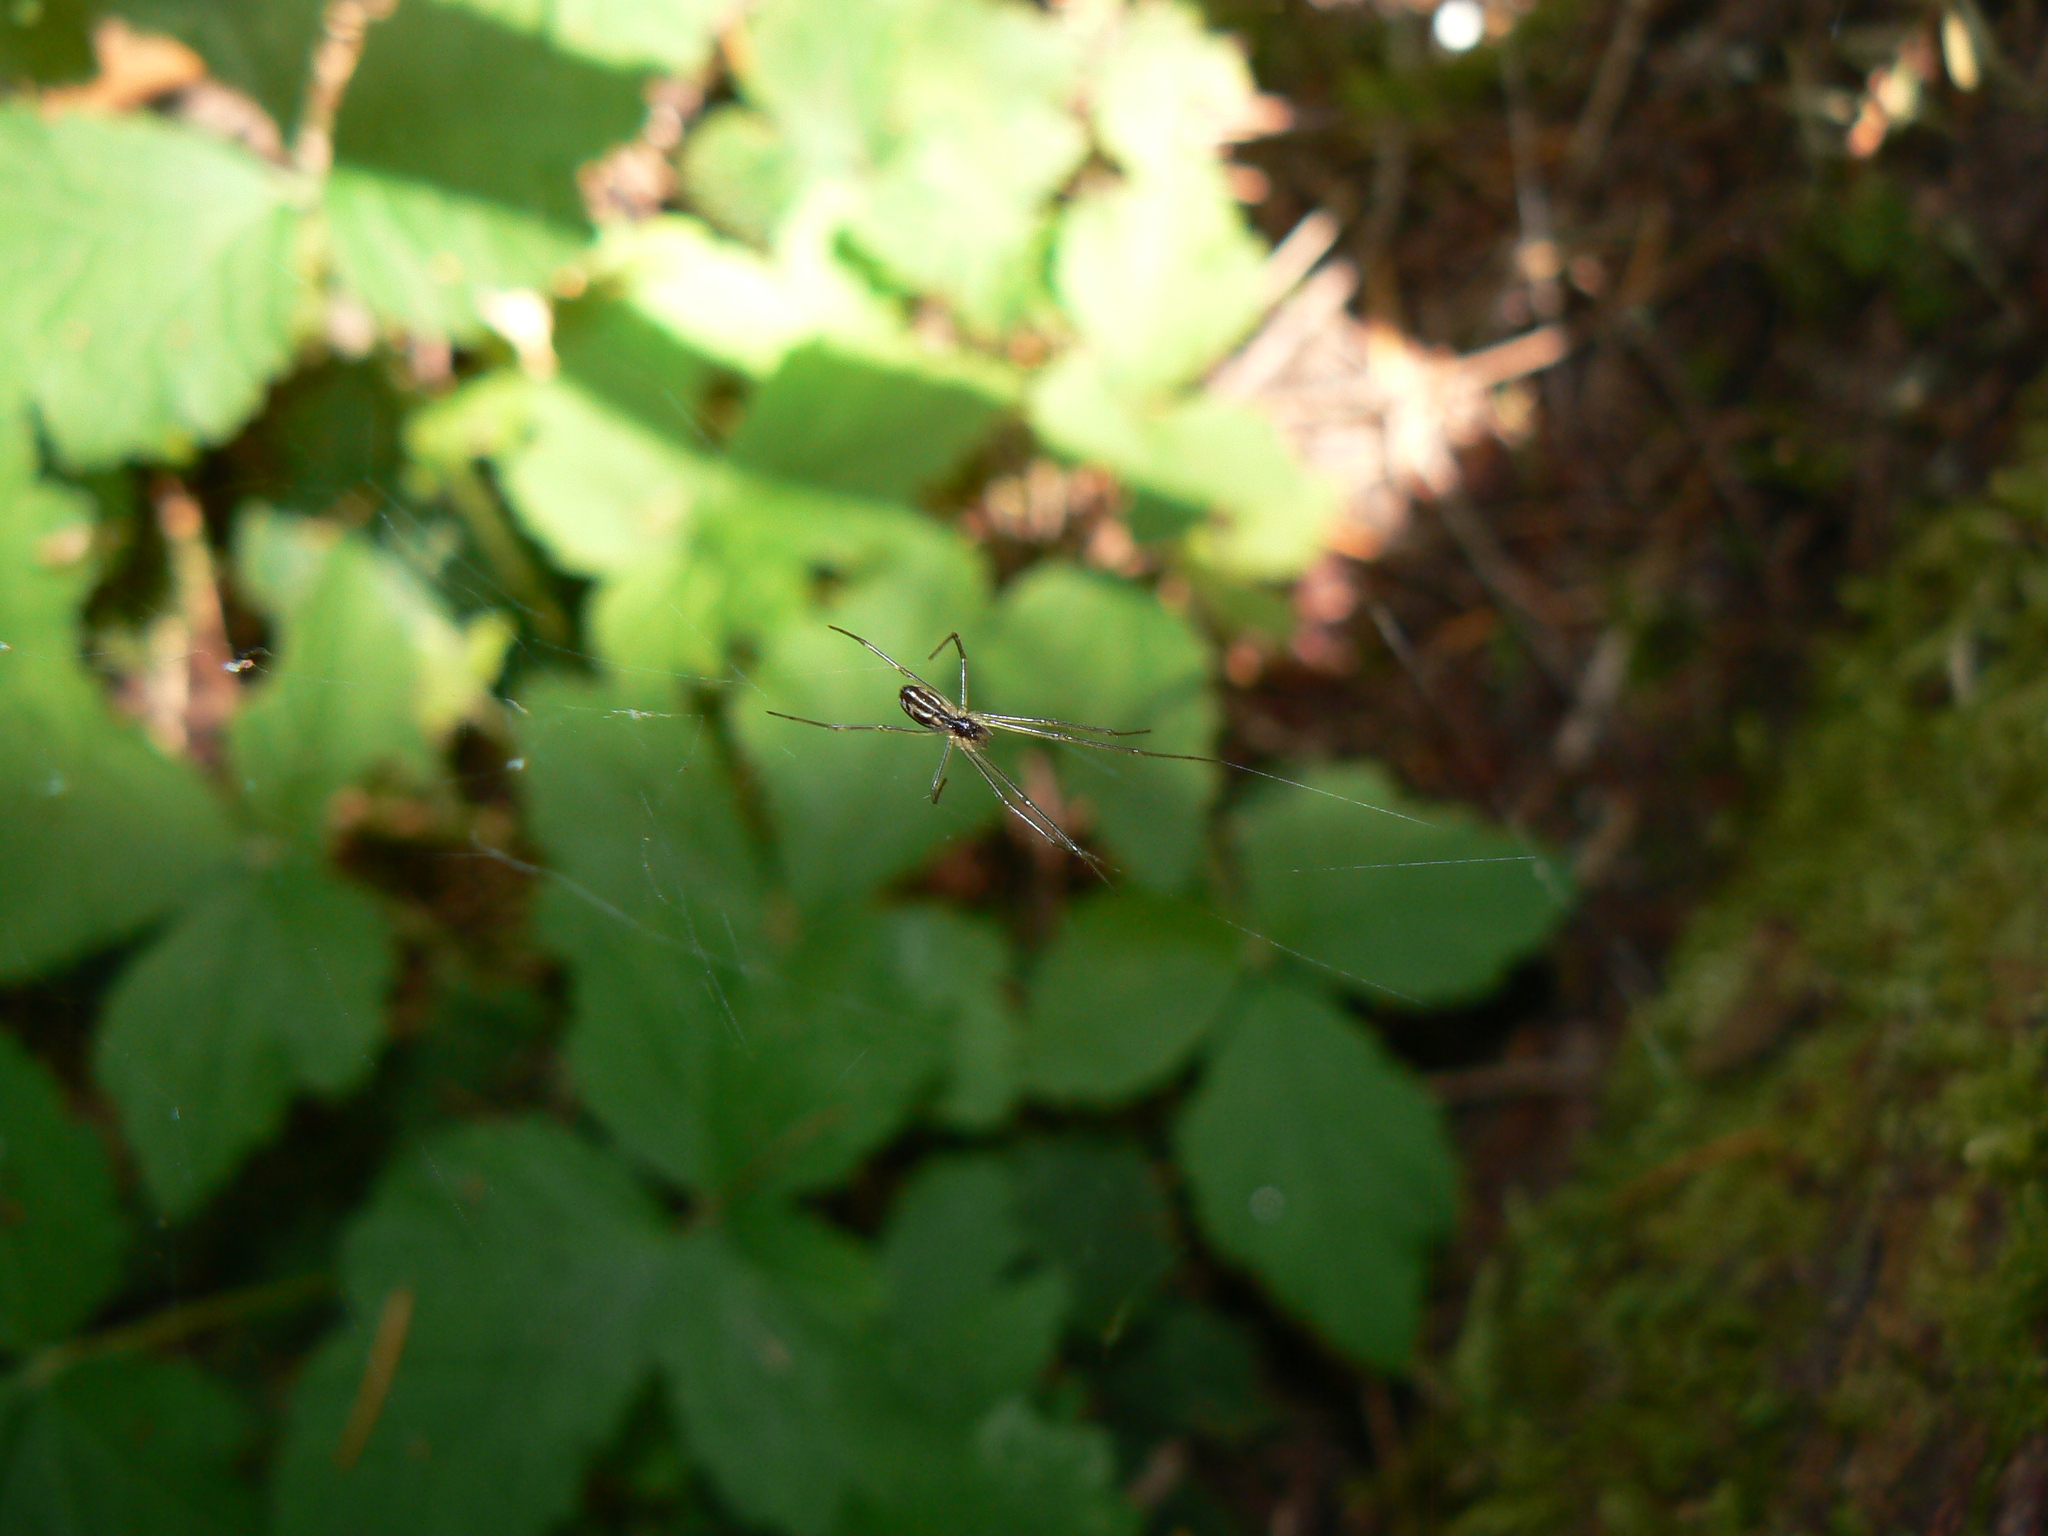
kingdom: Animalia
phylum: Arthropoda
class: Arachnida
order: Araneae
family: Linyphiidae
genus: Neriene
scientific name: Neriene litigiosa
